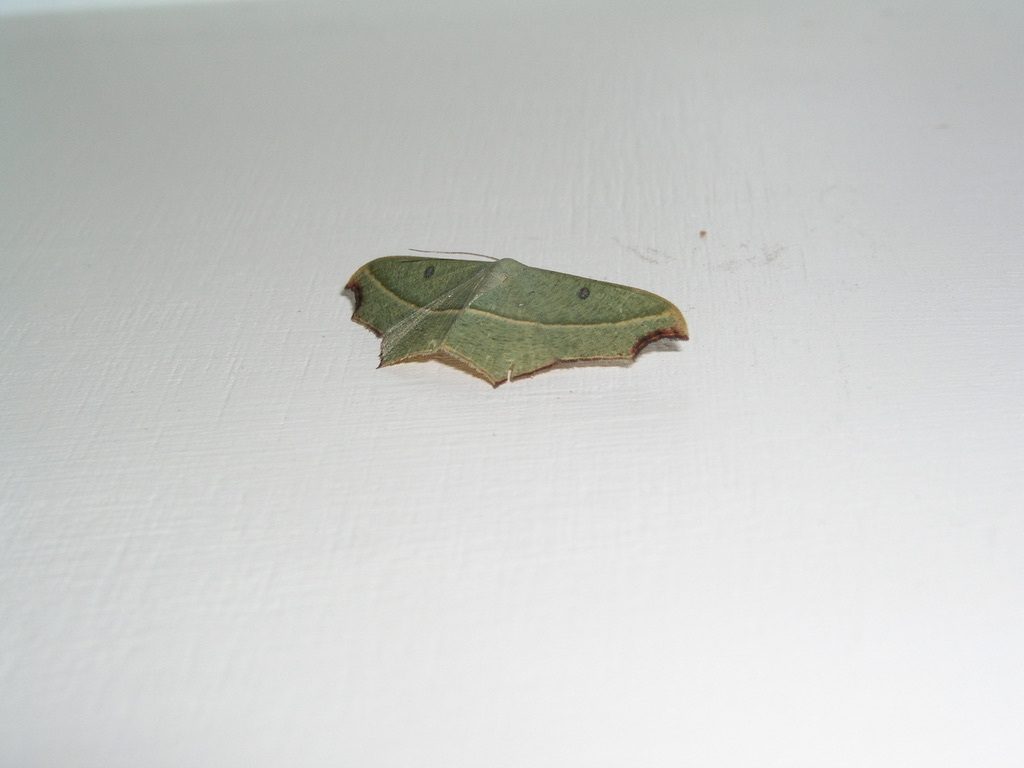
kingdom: Animalia
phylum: Arthropoda
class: Insecta
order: Lepidoptera
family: Geometridae
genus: Traminda
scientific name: Traminda aventiaria
